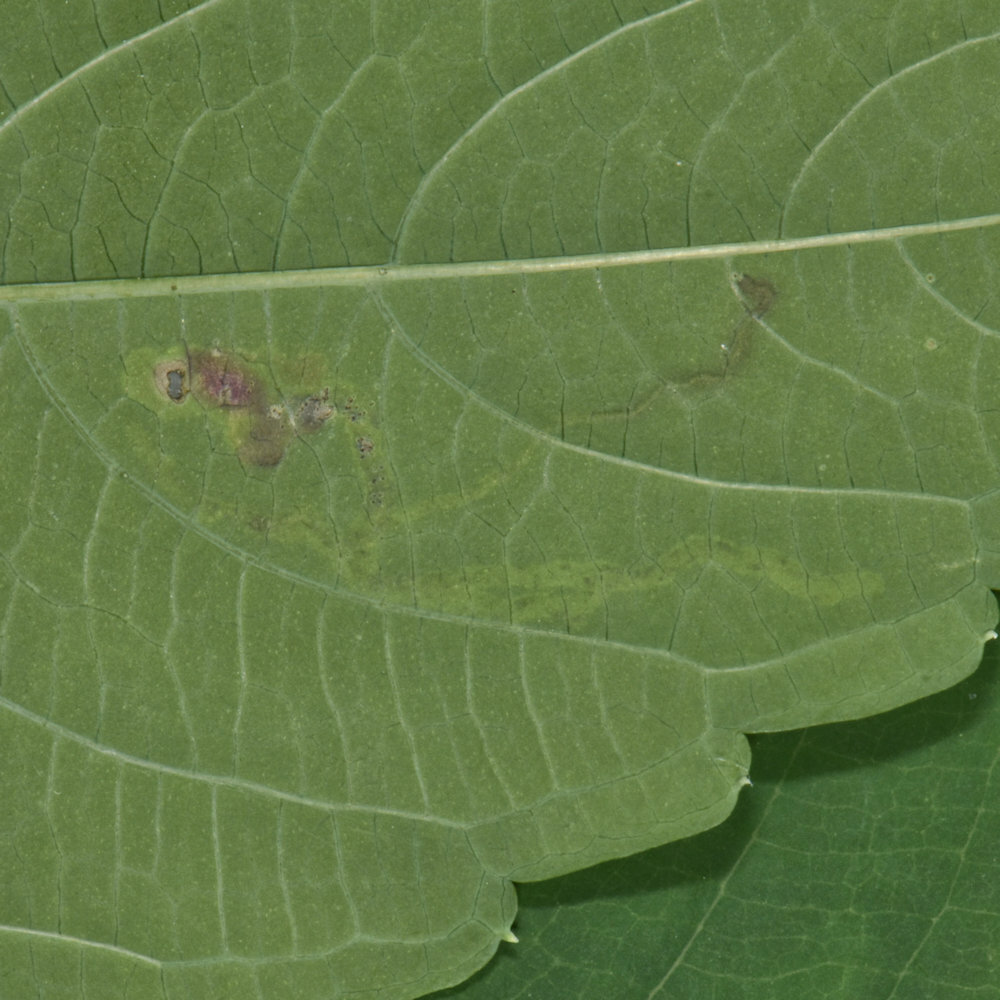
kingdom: Animalia
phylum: Arthropoda
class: Insecta
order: Diptera
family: Agromyzidae
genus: Phytoliriomyza
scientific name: Phytoliriomyza melampyga
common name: Jewelweed leaf-miner fly
